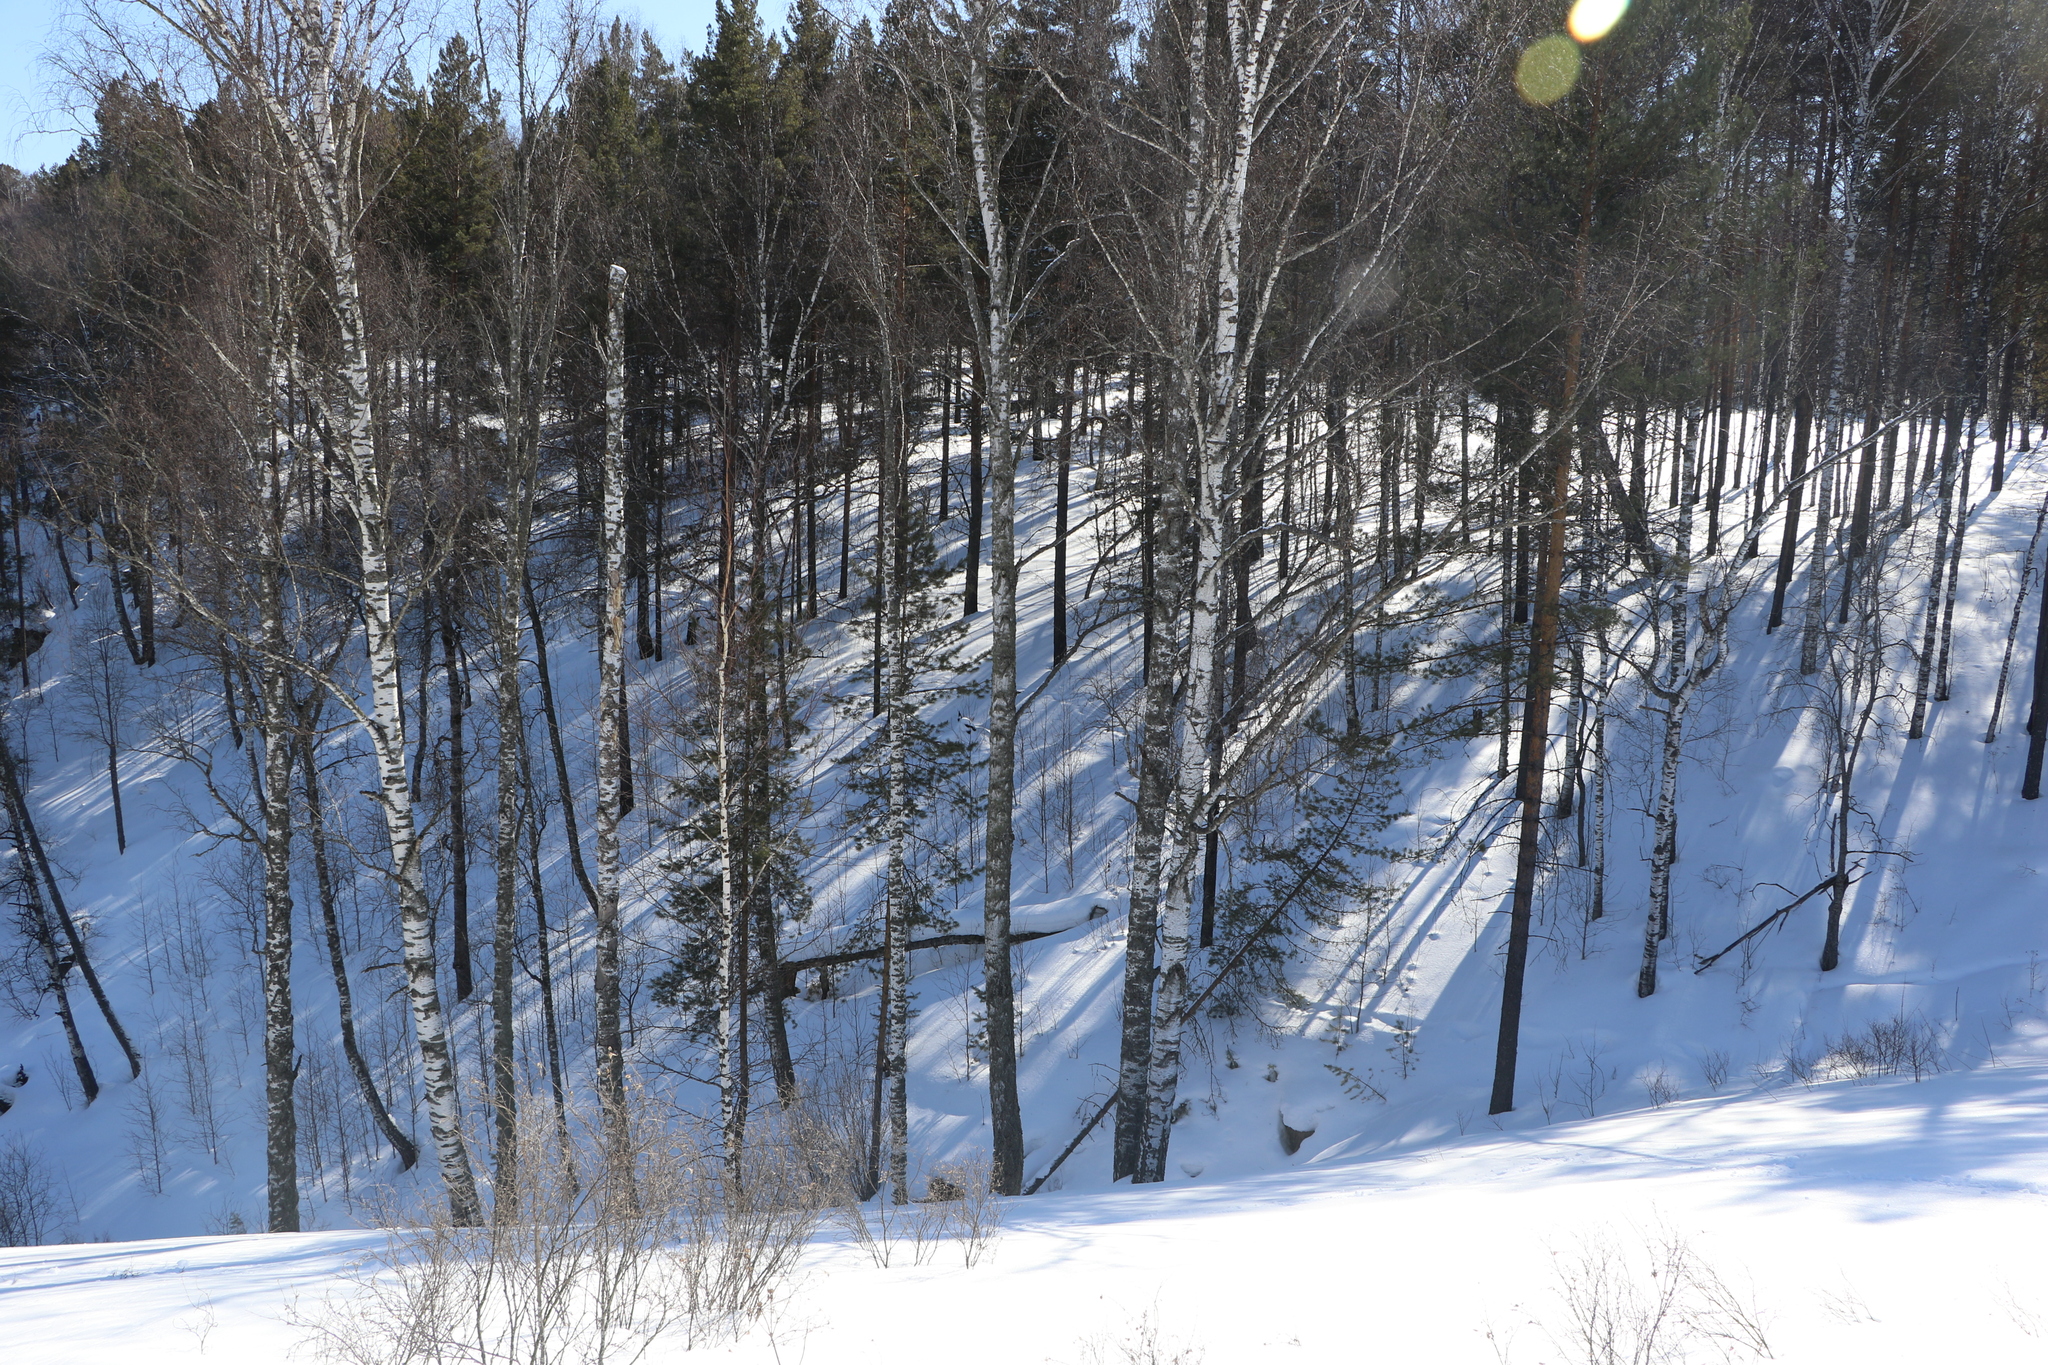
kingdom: Plantae
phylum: Tracheophyta
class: Magnoliopsida
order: Fagales
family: Betulaceae
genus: Betula
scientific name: Betula pendula
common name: Silver birch
